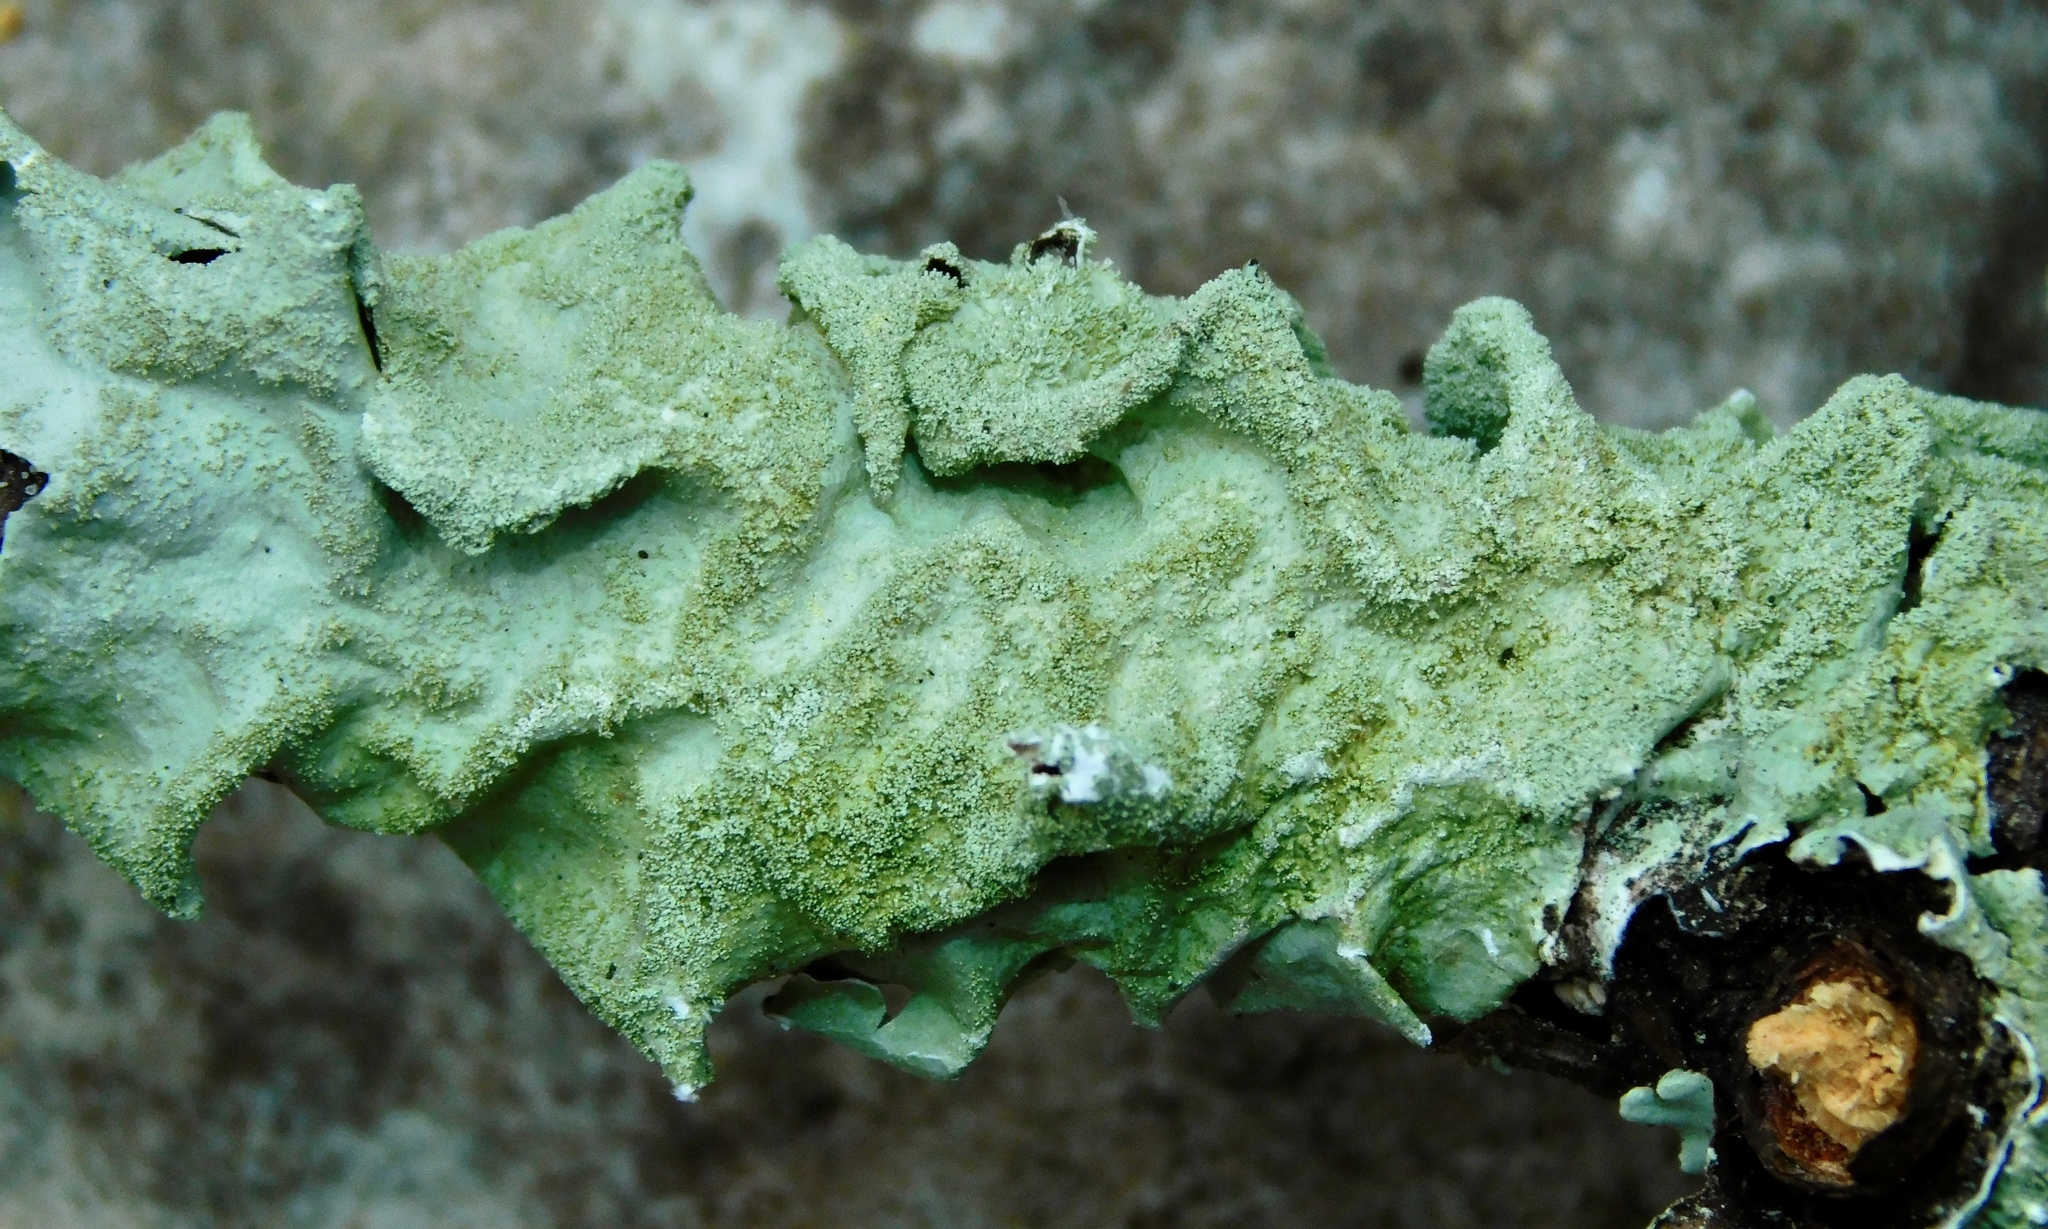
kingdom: Fungi
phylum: Ascomycota
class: Lecanoromycetes
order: Lecanorales
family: Parmeliaceae
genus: Parmotrema
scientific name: Parmotrema tinctorum
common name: Old gray ruffles
